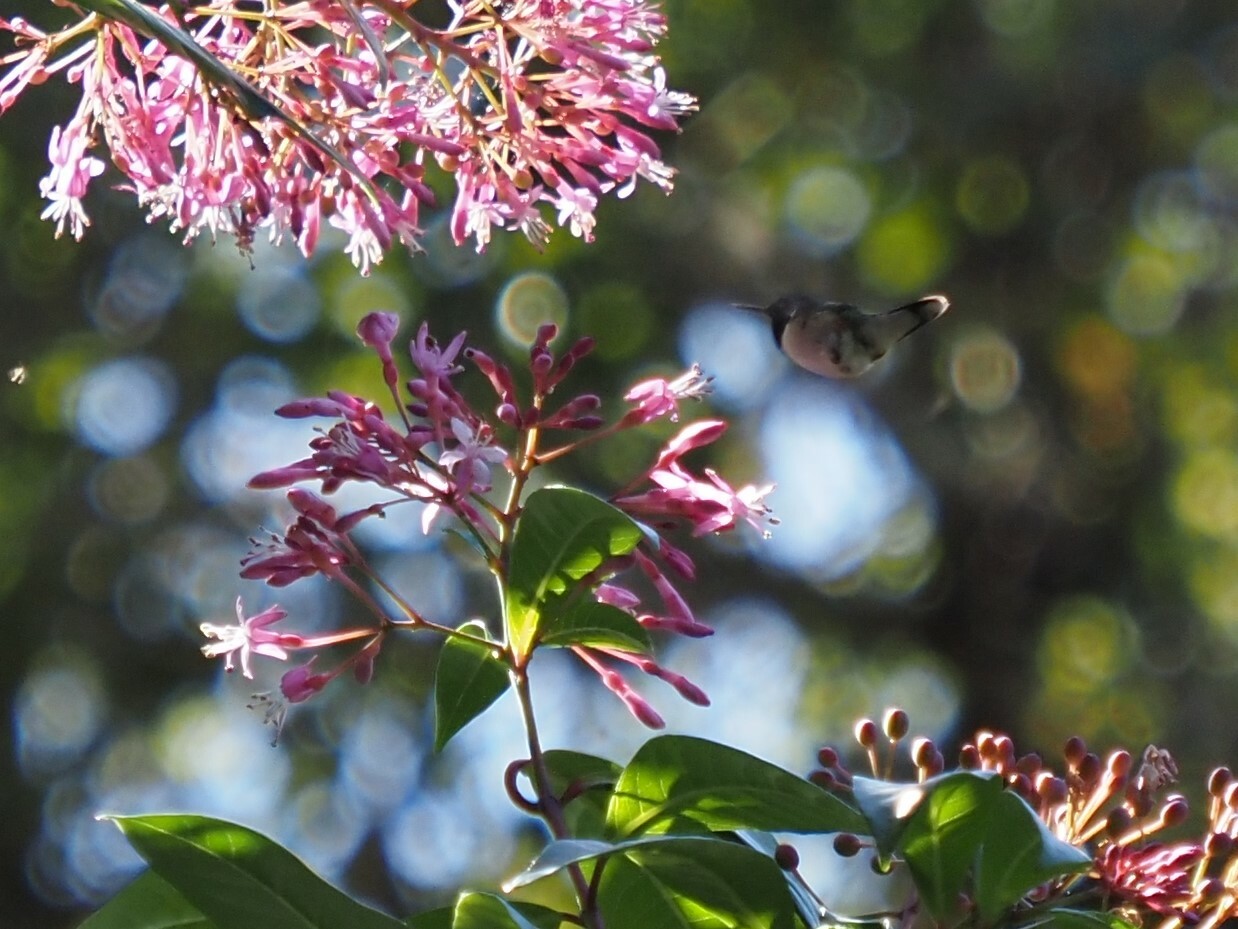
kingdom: Animalia
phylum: Chordata
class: Aves
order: Apodiformes
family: Trochilidae
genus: Selasphorus
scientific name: Selasphorus heloisa
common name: Bumblebee hummingbird
